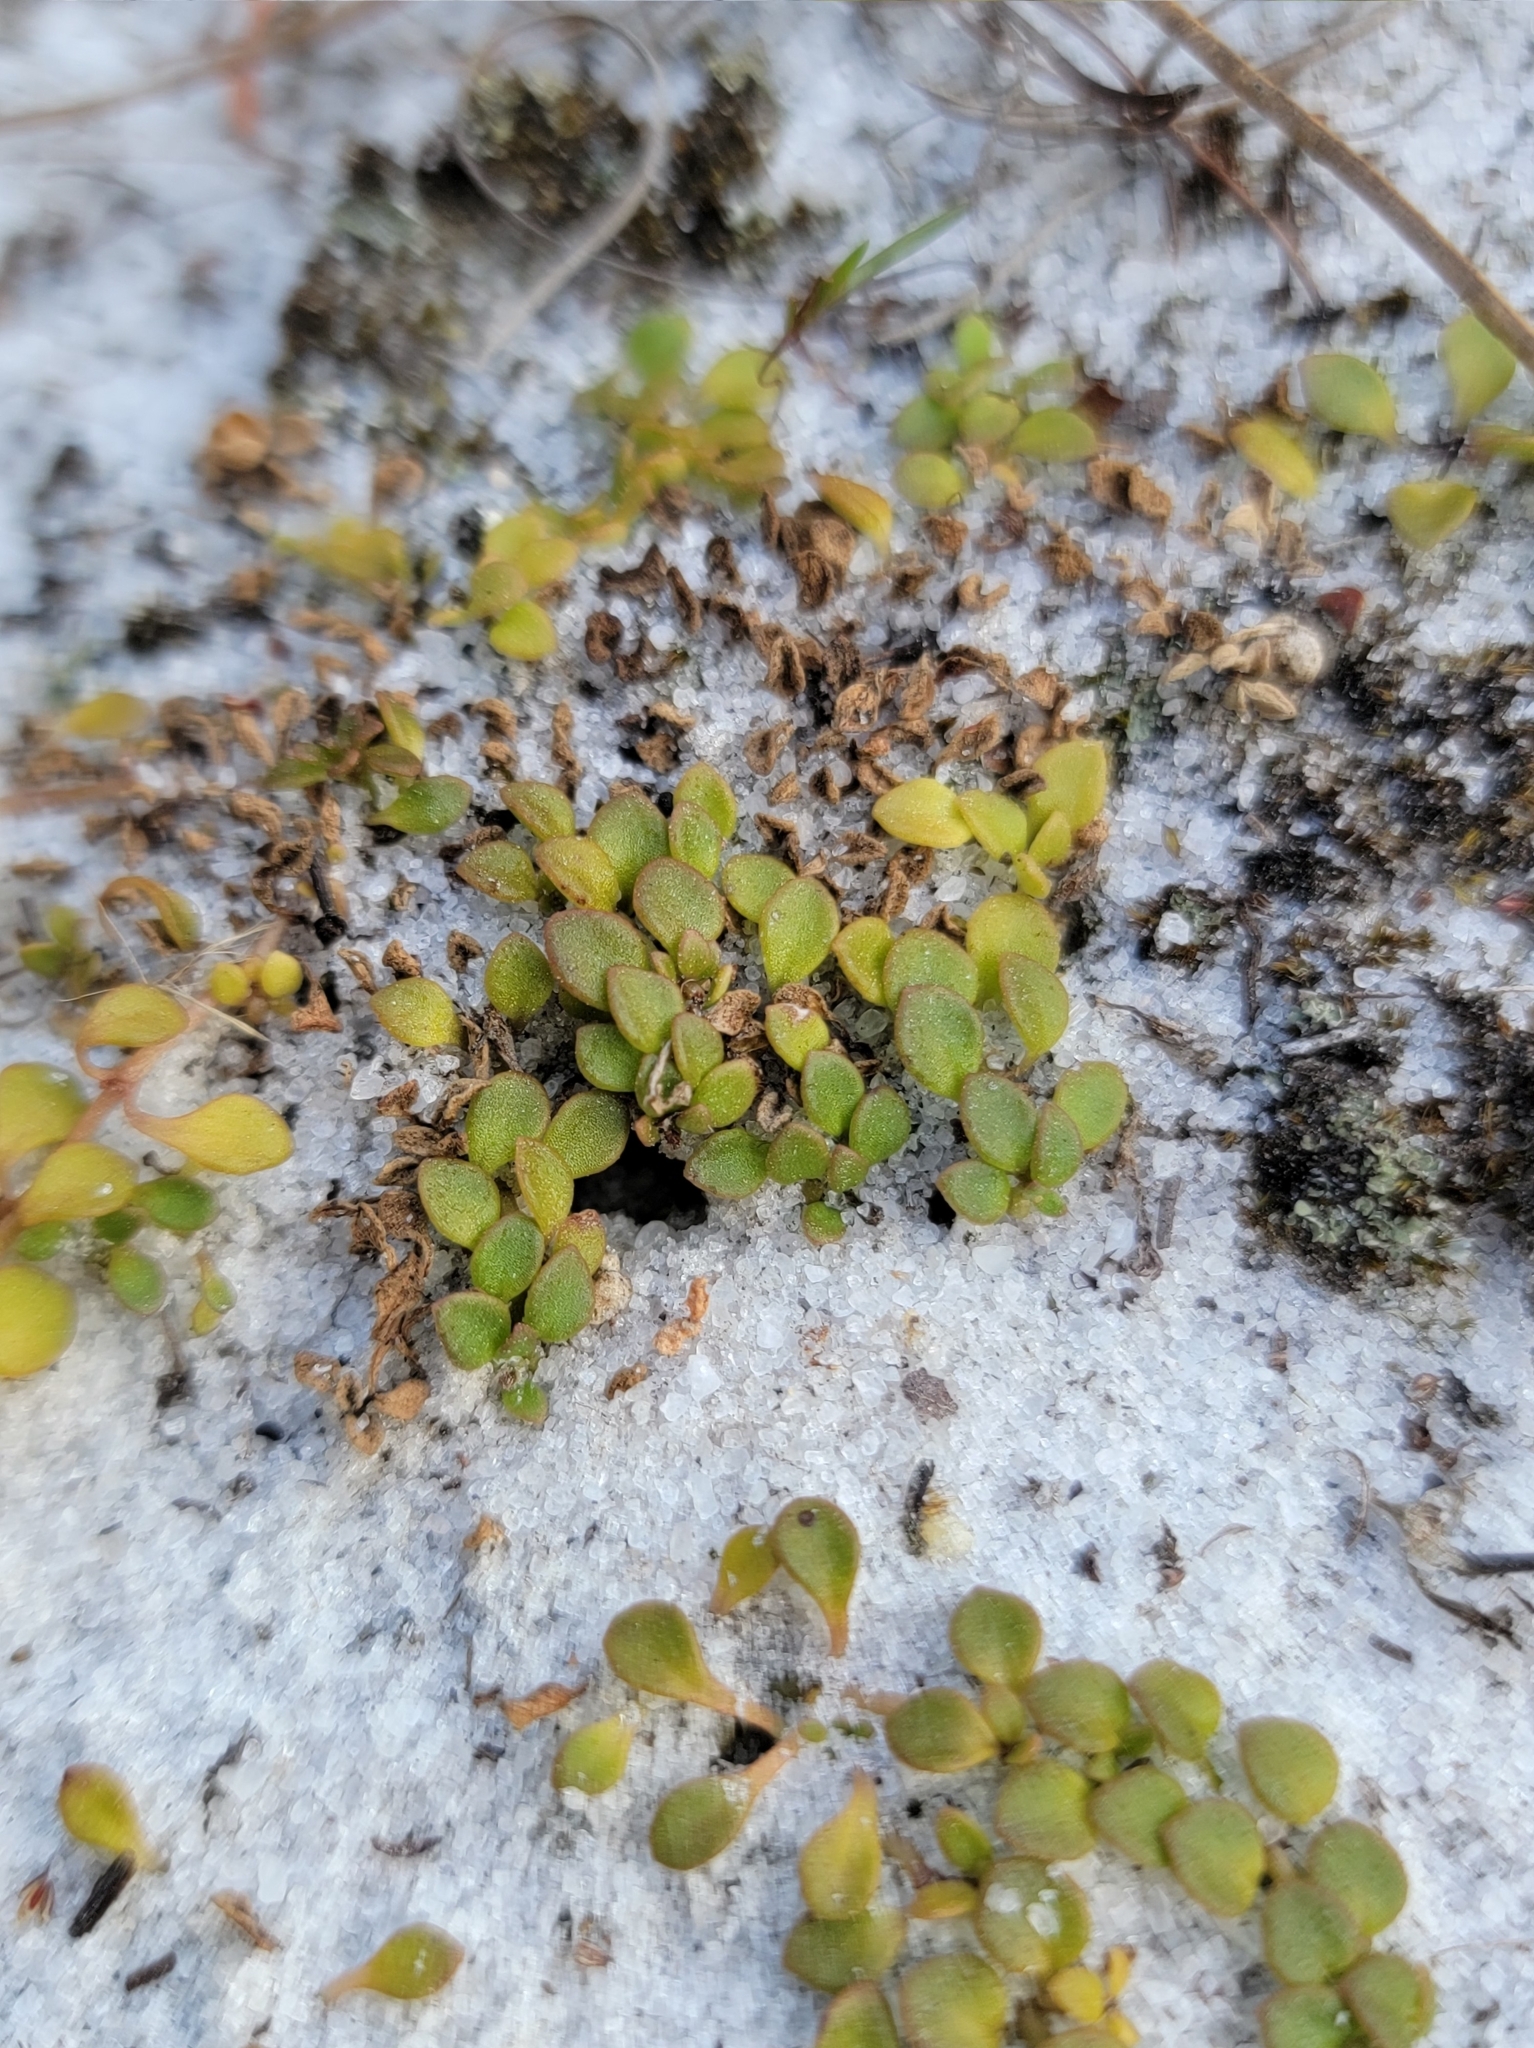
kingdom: Plantae
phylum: Tracheophyta
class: Magnoliopsida
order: Gentianales
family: Rubiaceae
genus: Houstonia
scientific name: Houstonia procumbens
